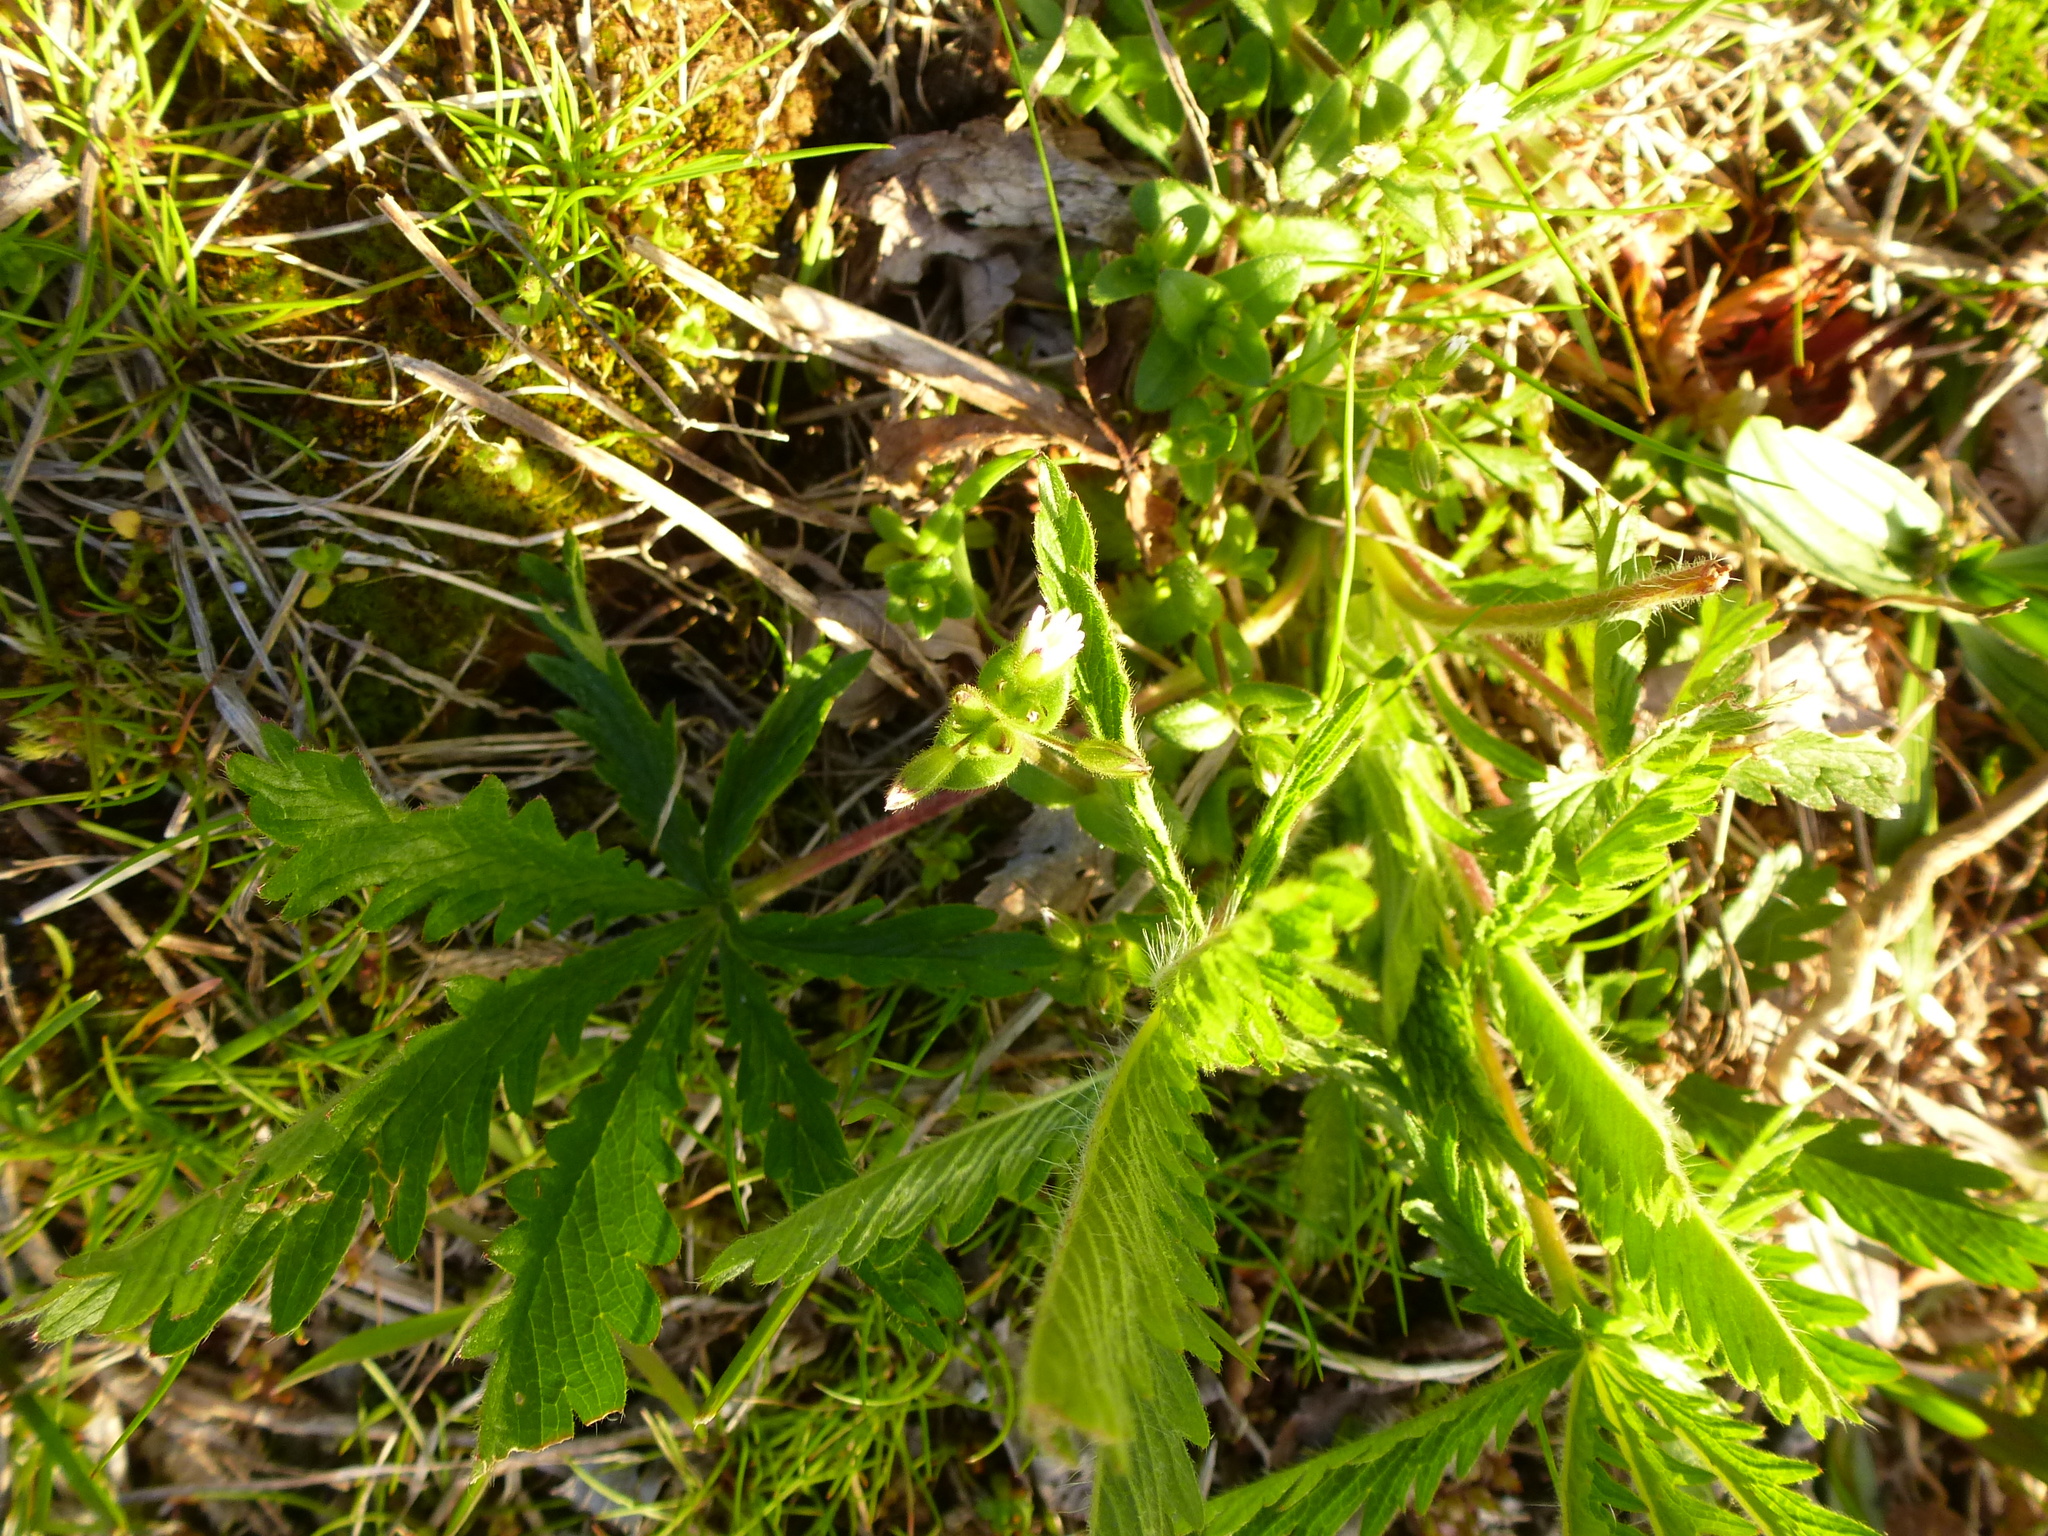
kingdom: Plantae
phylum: Tracheophyta
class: Magnoliopsida
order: Rosales
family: Rosaceae
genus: Potentilla
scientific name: Potentilla recta
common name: Sulphur cinquefoil
